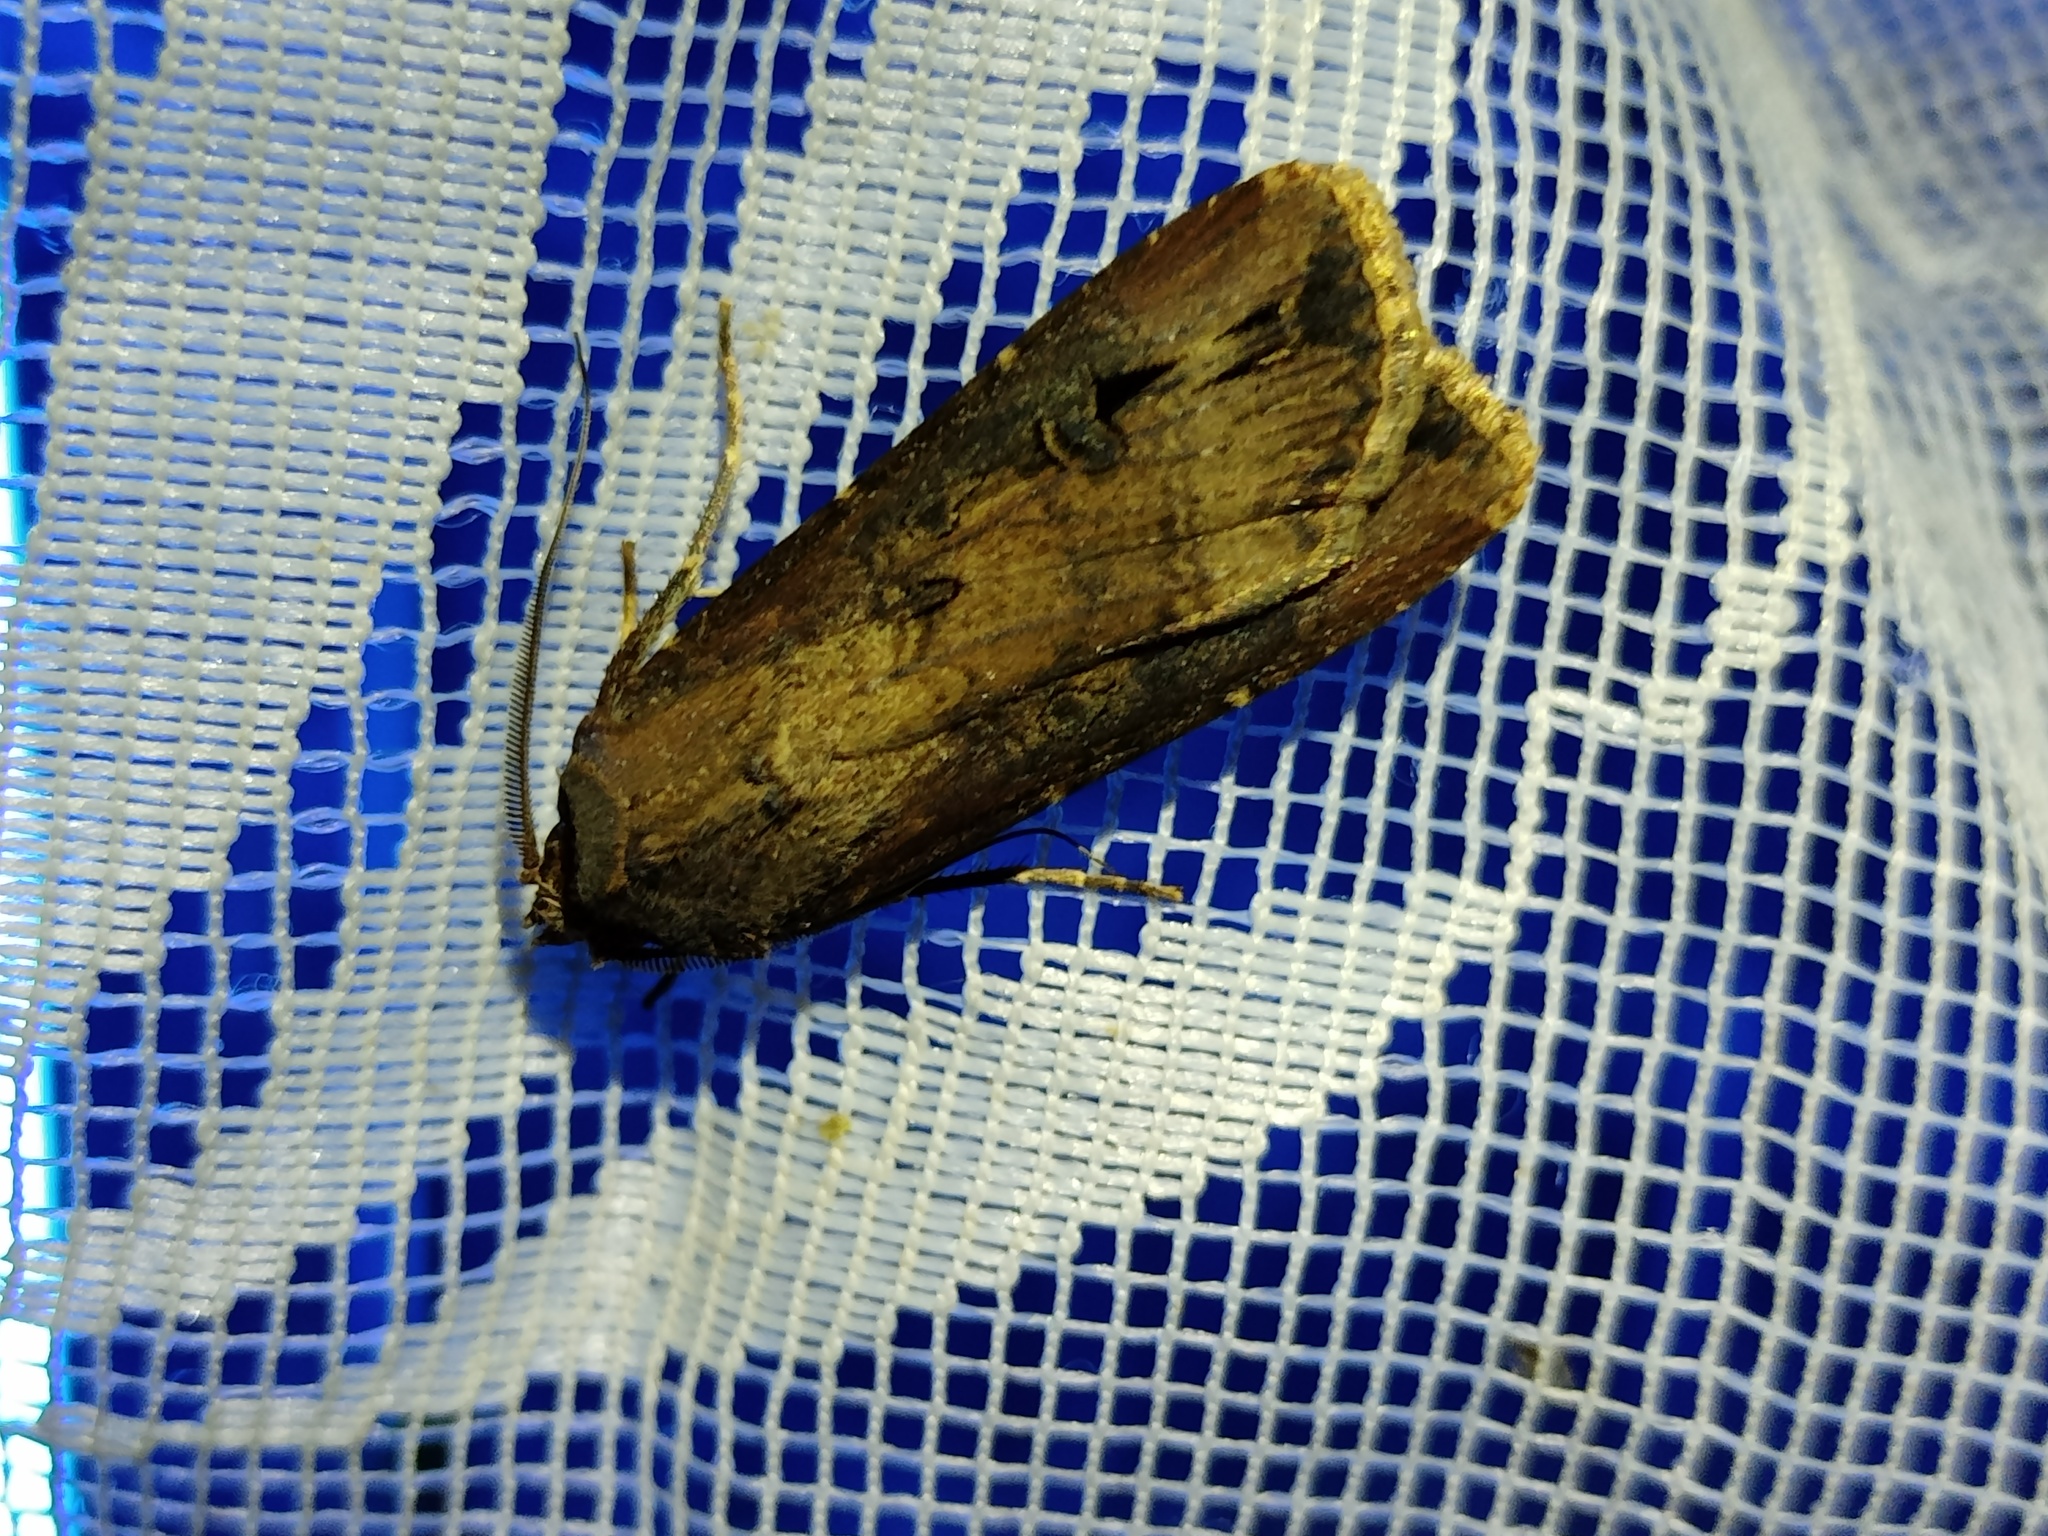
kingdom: Animalia
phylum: Arthropoda
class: Insecta
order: Lepidoptera
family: Noctuidae
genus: Agrotis
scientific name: Agrotis ipsilon
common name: Dark sword-grass
